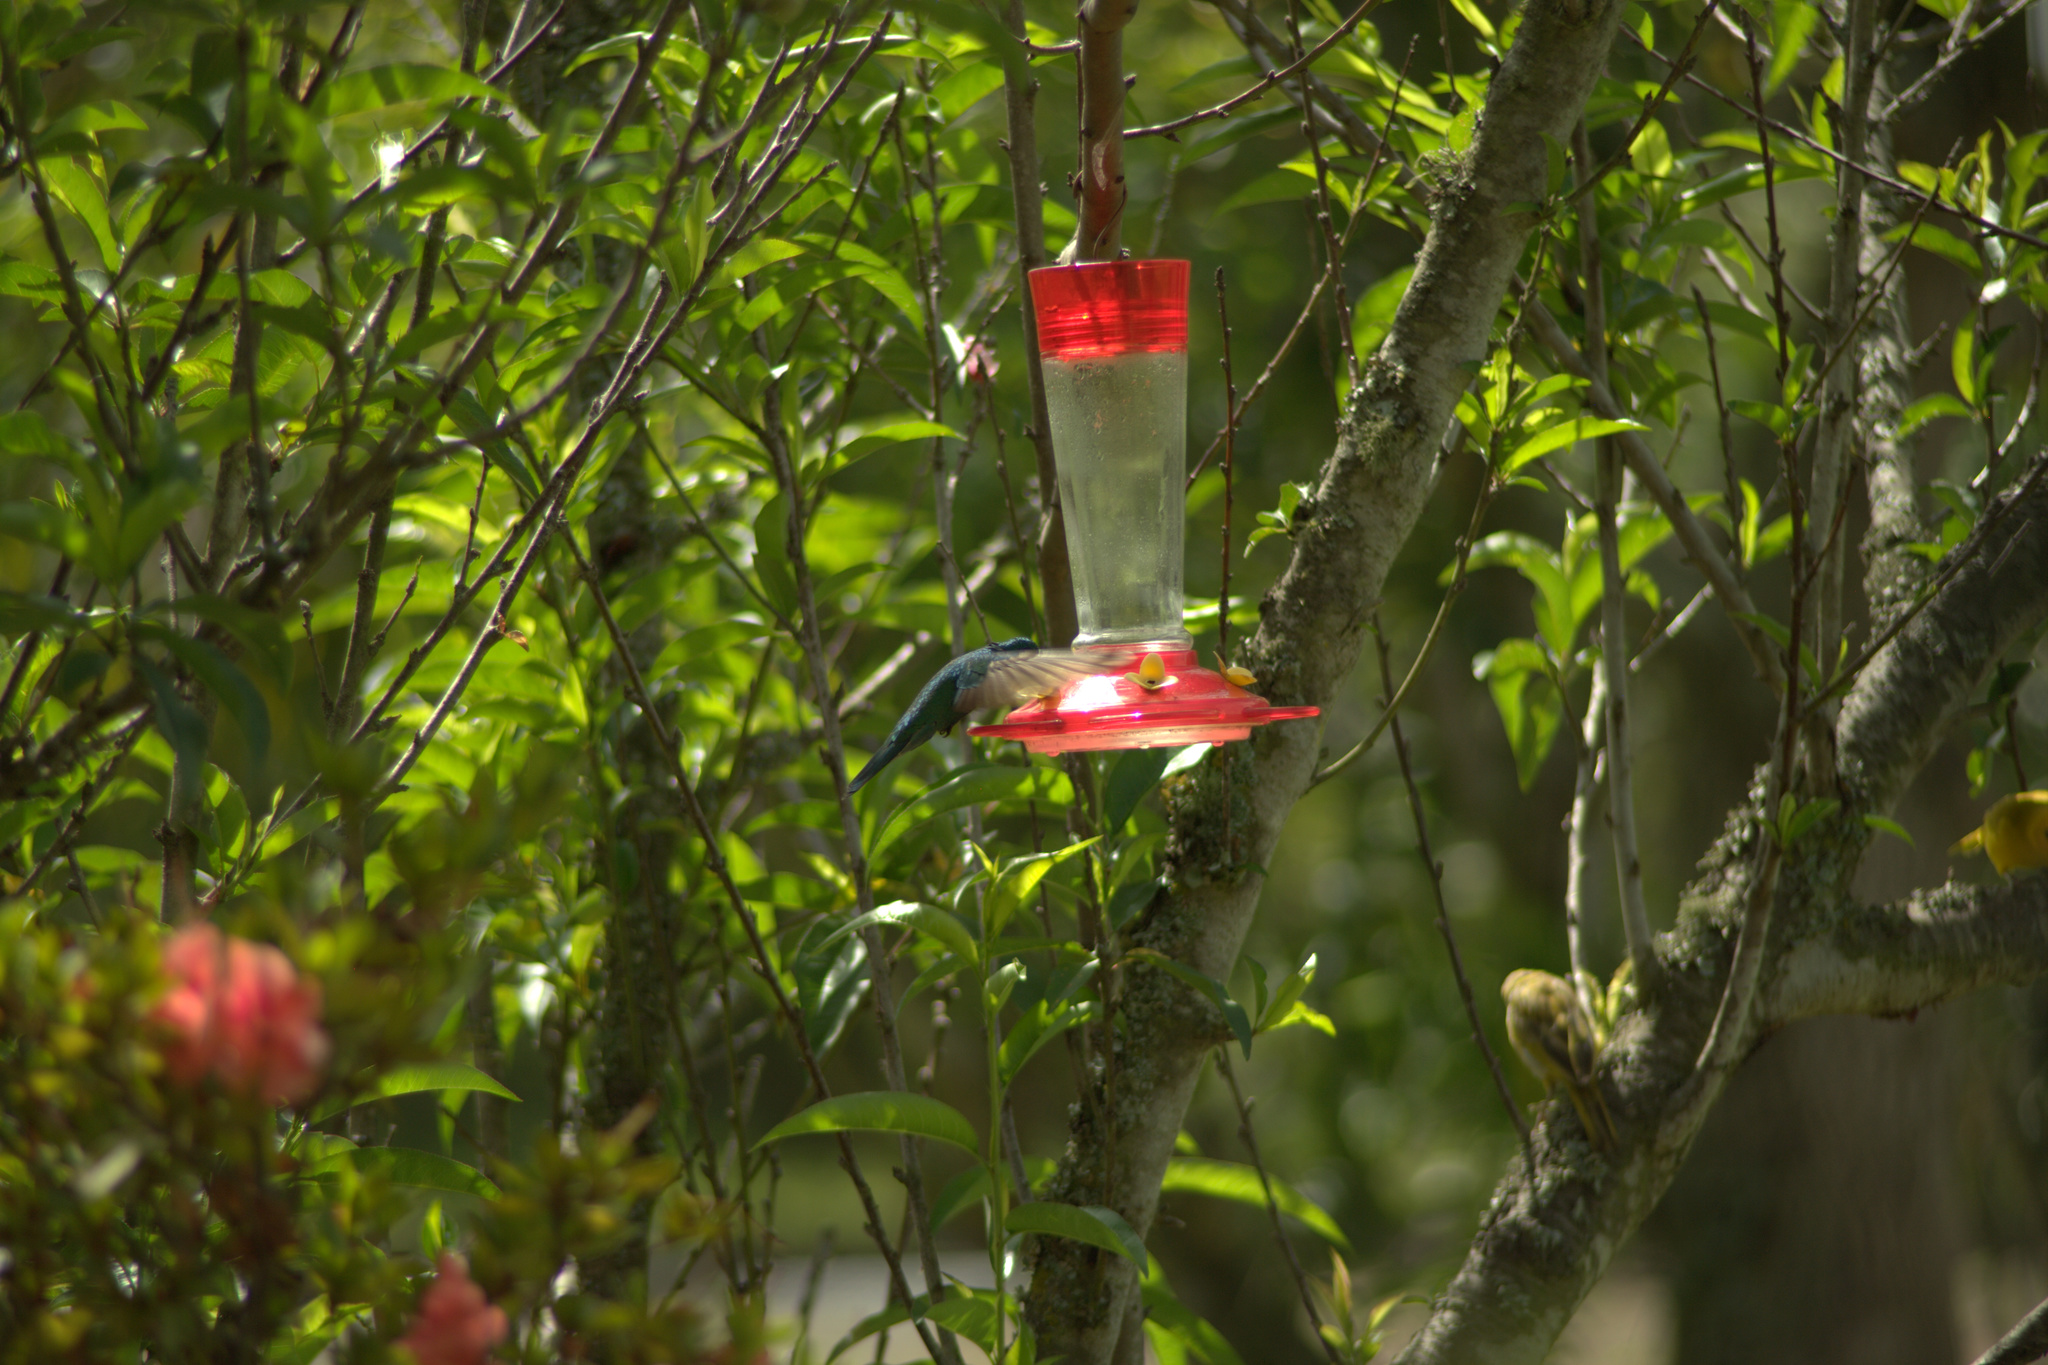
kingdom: Animalia
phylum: Chordata
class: Aves
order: Apodiformes
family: Trochilidae
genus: Colibri
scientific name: Colibri coruscans
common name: Sparkling violetear
